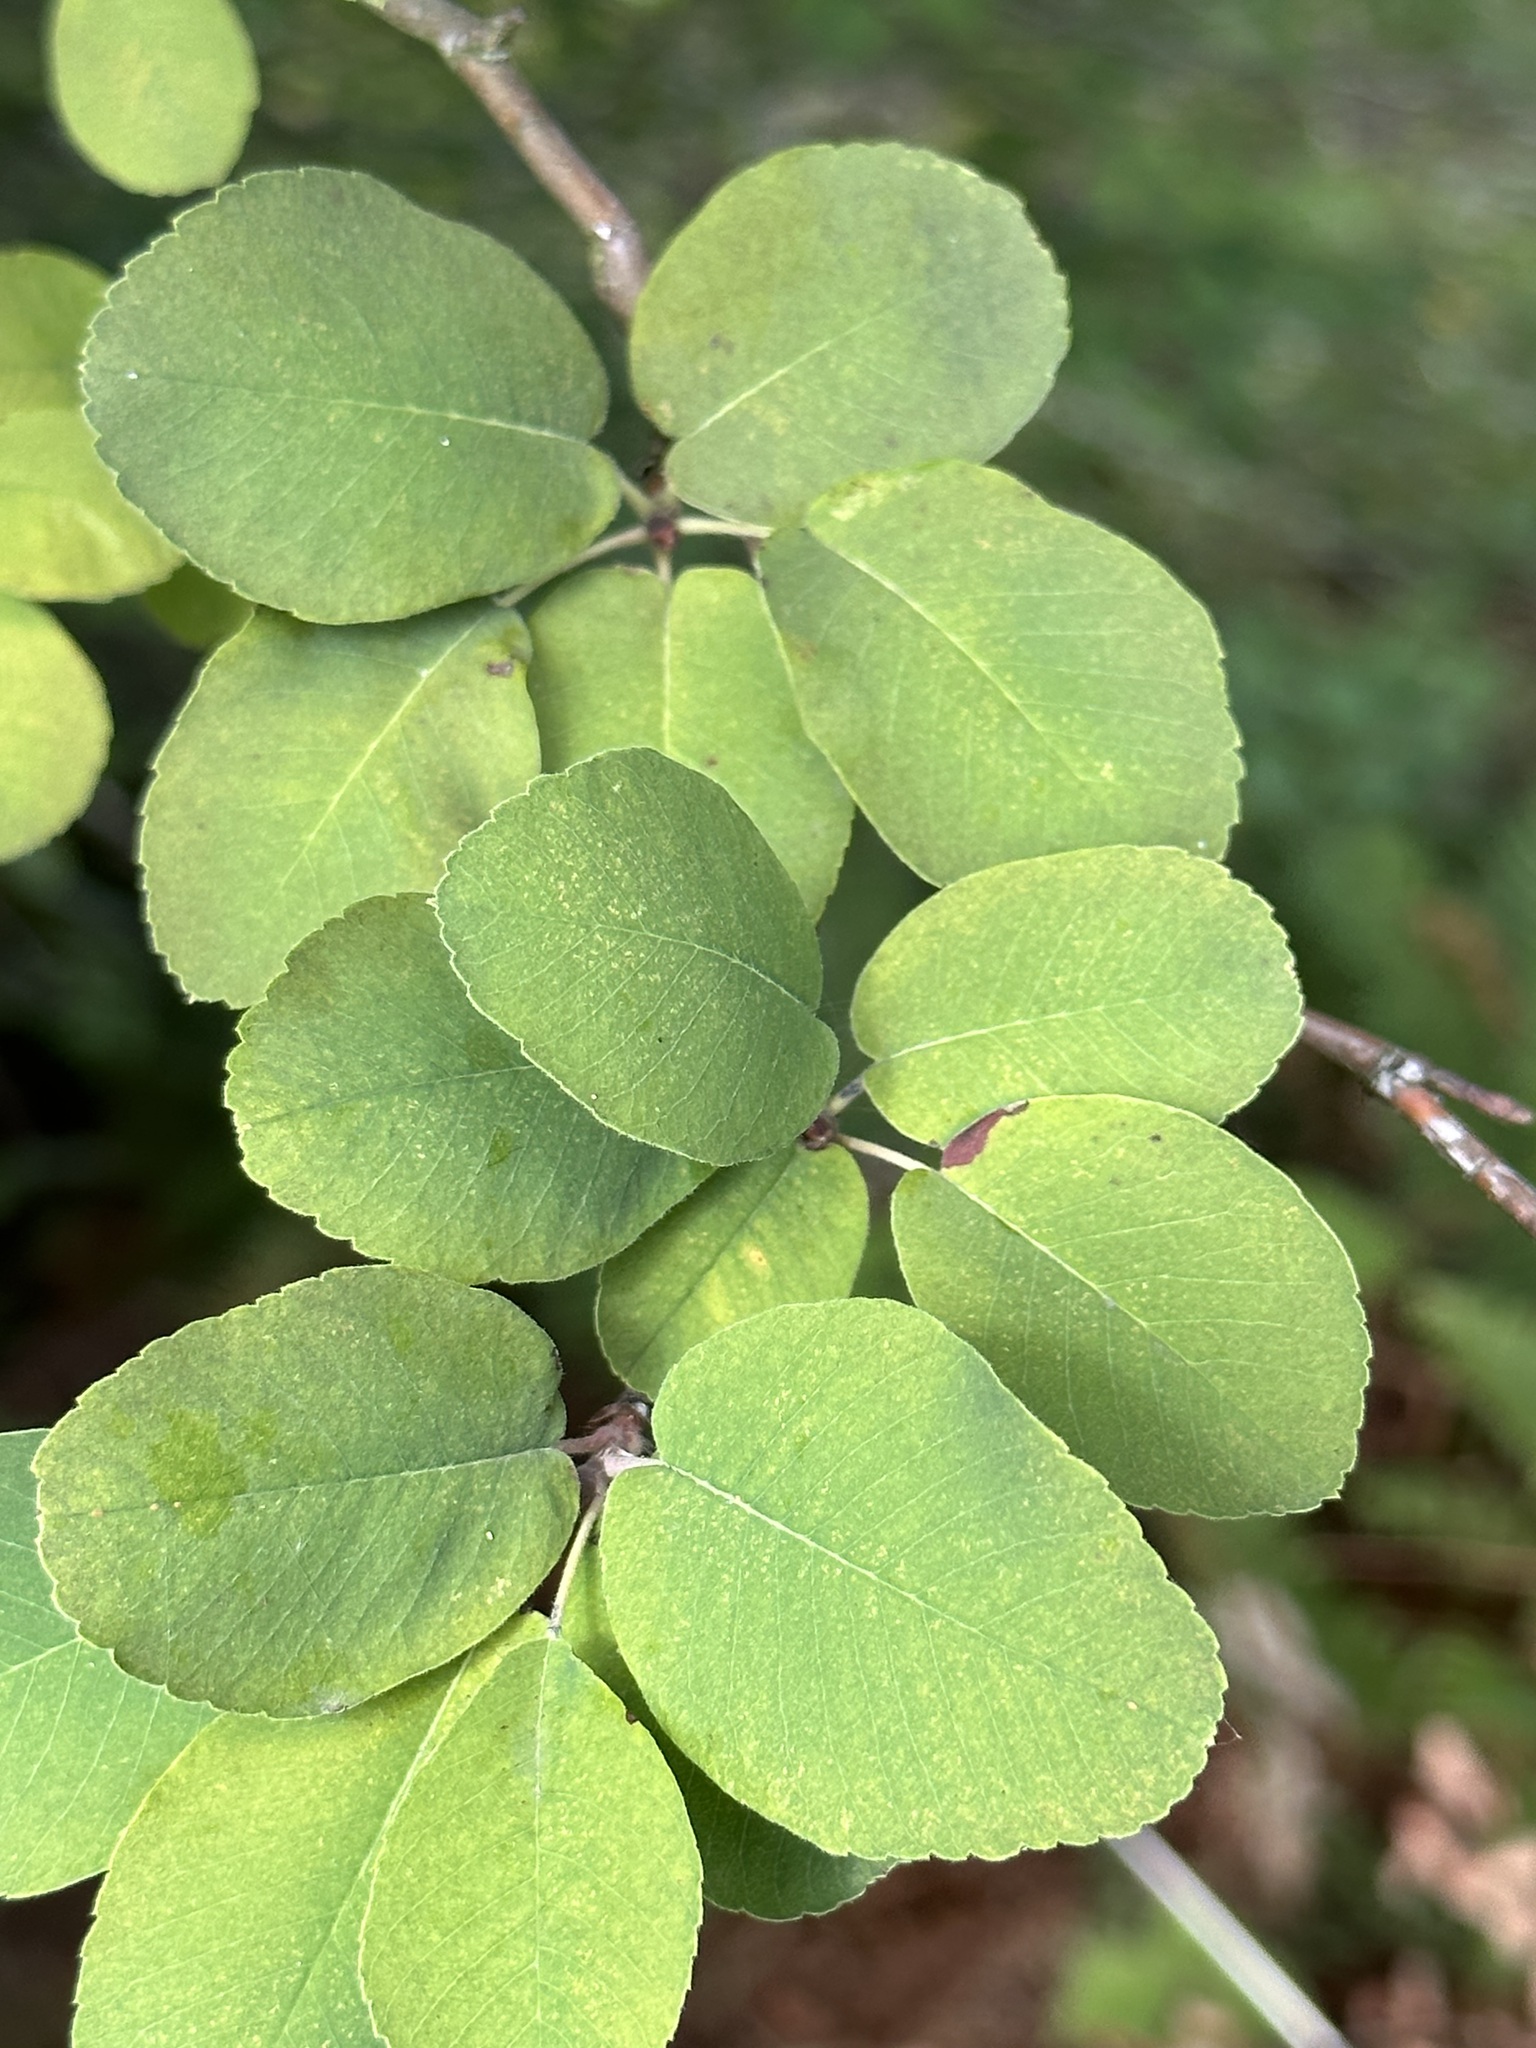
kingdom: Plantae
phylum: Tracheophyta
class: Magnoliopsida
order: Rosales
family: Rosaceae
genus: Amelanchier
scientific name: Amelanchier alnifolia
